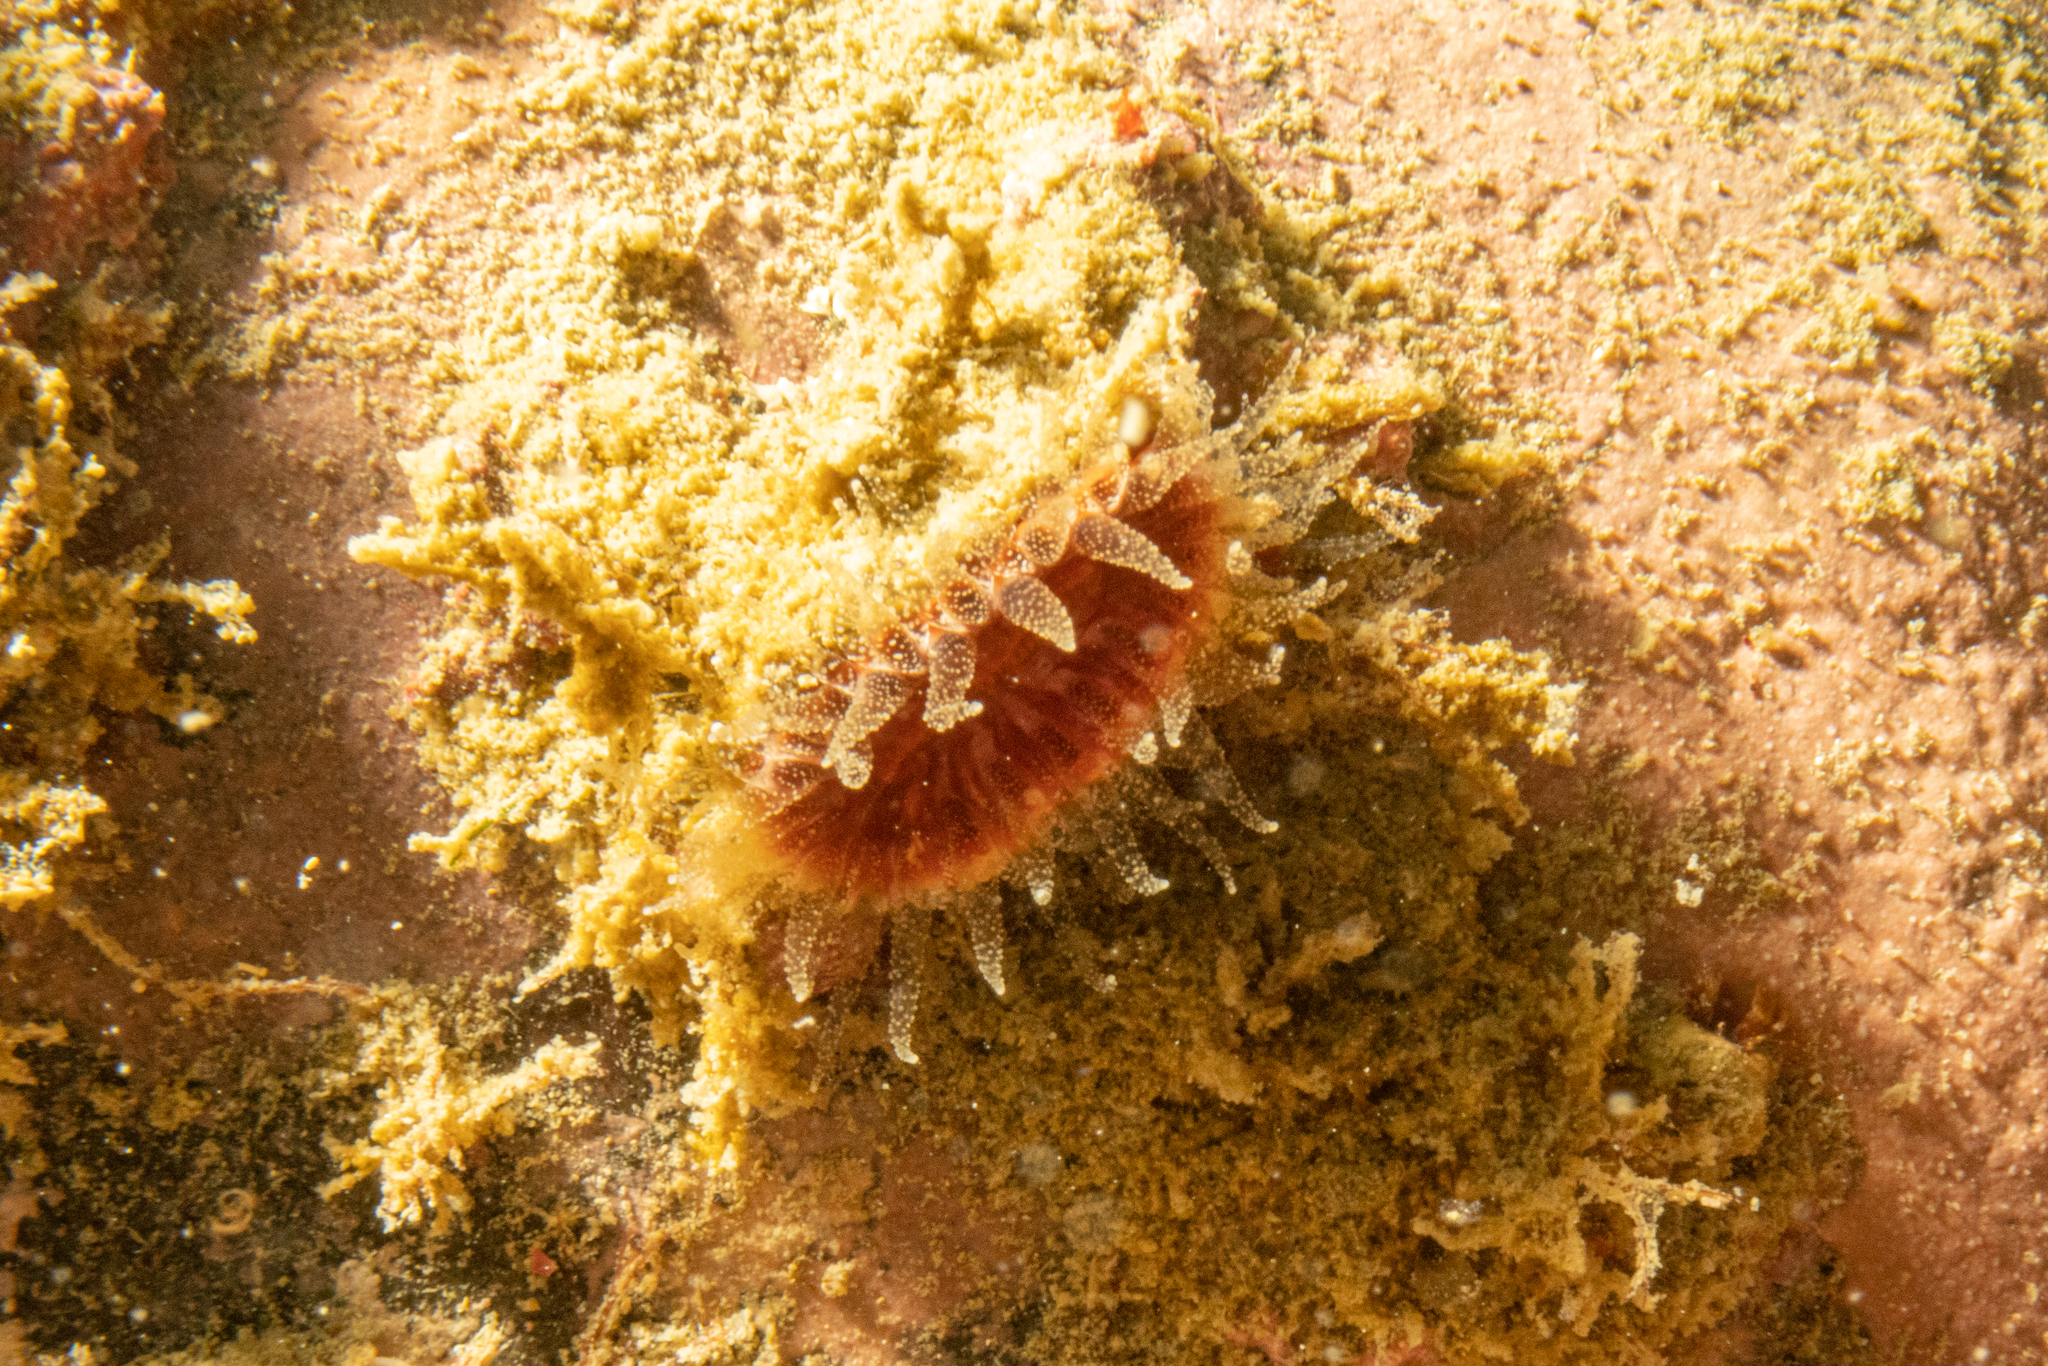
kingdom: Animalia
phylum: Cnidaria
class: Anthozoa
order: Scleractinia
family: Flabellidae
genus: Monomyces
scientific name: Monomyces rubrum
